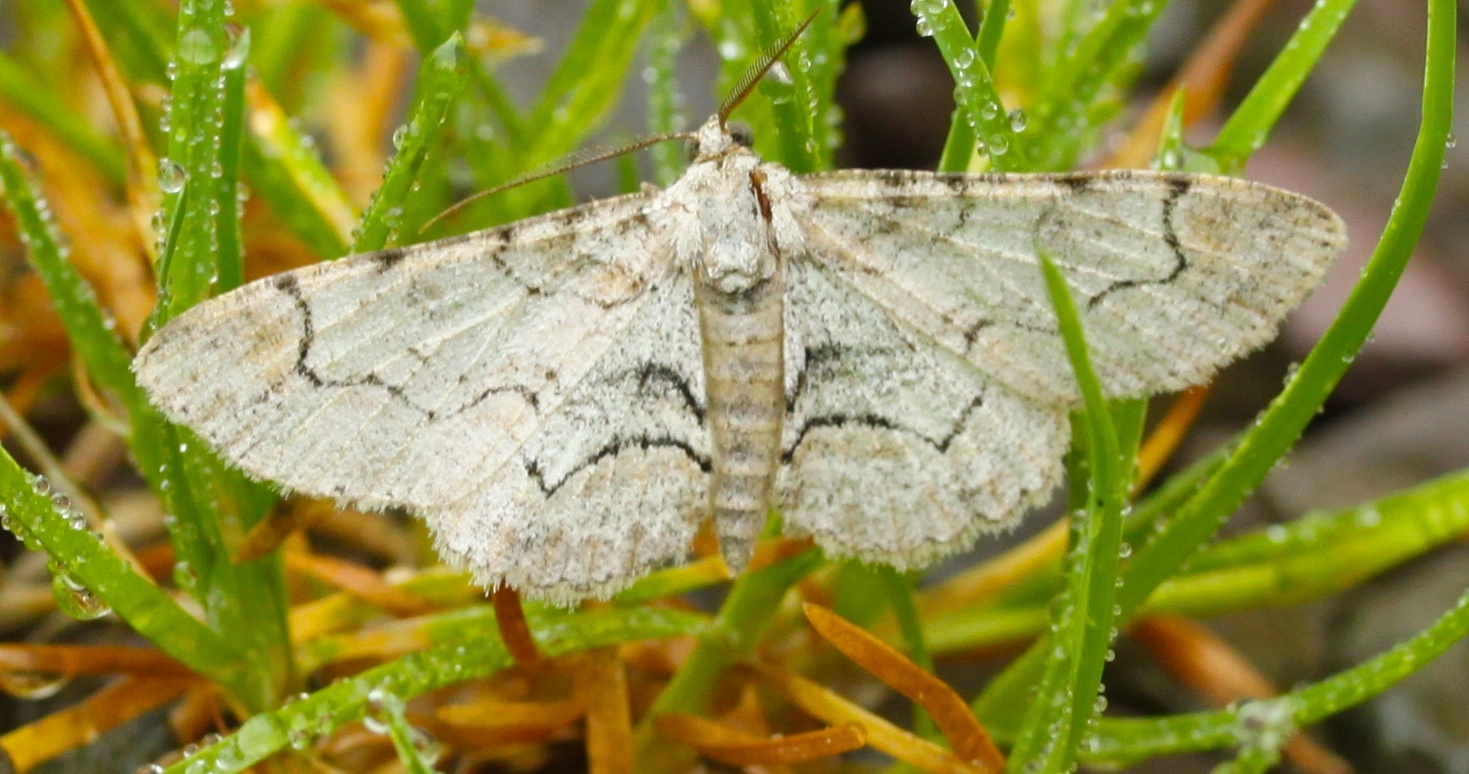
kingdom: Animalia
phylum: Arthropoda
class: Insecta
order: Lepidoptera
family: Geometridae
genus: Iridopsis
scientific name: Iridopsis larvaria
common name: Bent-line gray
